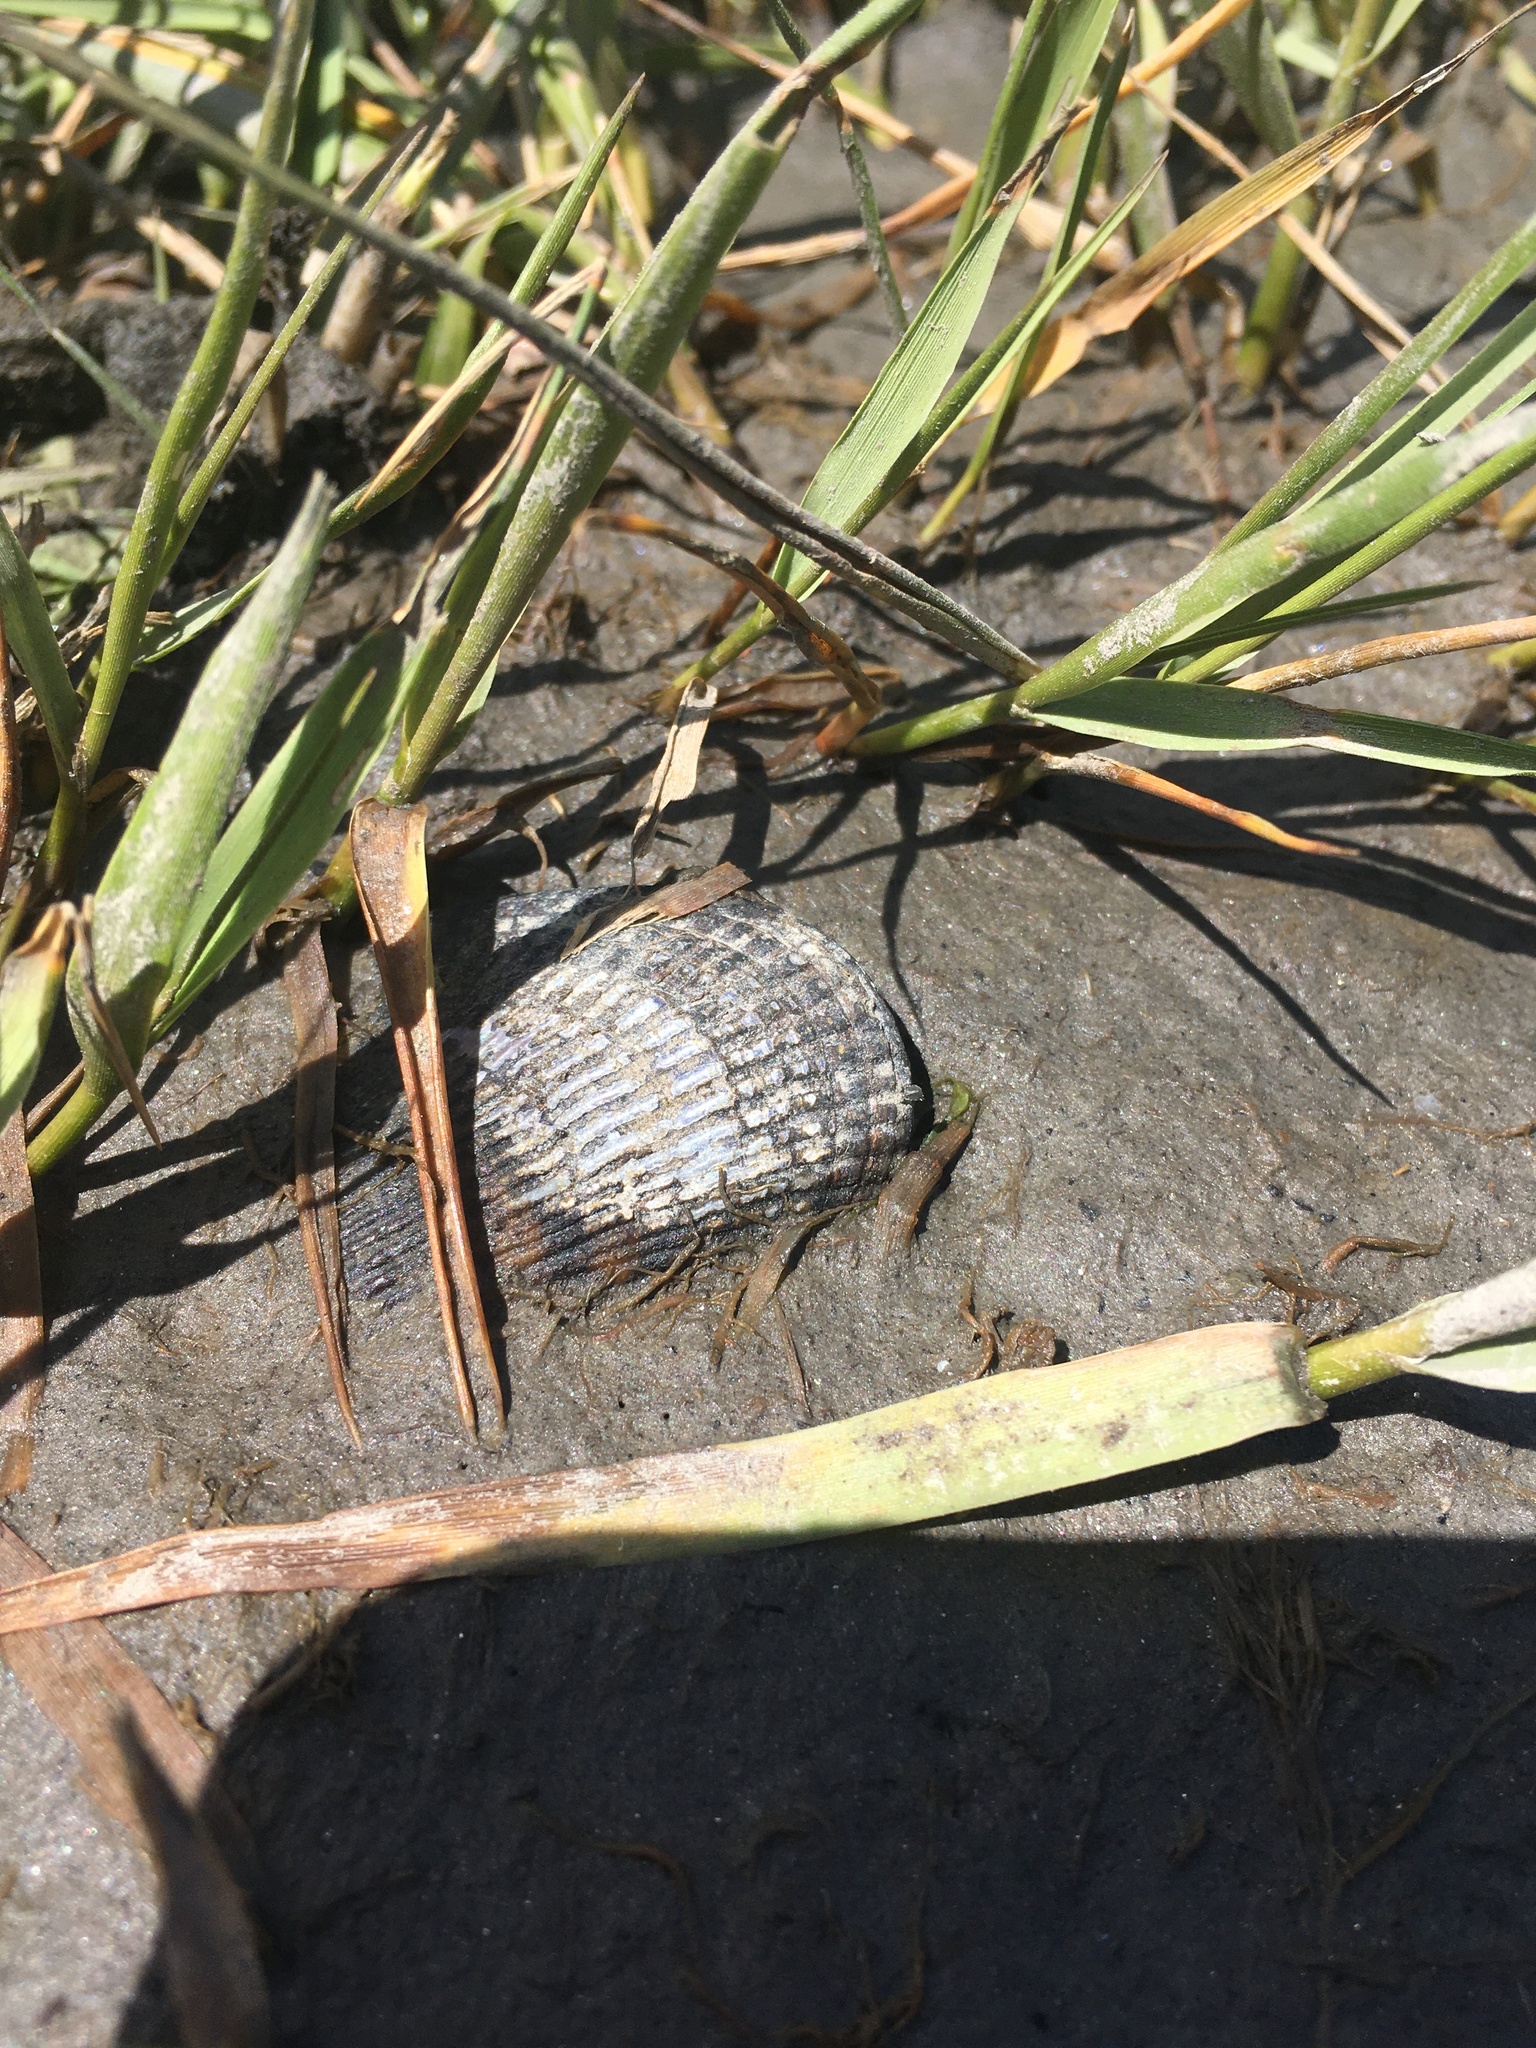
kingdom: Animalia
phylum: Mollusca
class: Bivalvia
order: Mytilida
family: Mytilidae
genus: Geukensia
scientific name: Geukensia demissa
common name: Ribbed mussel
